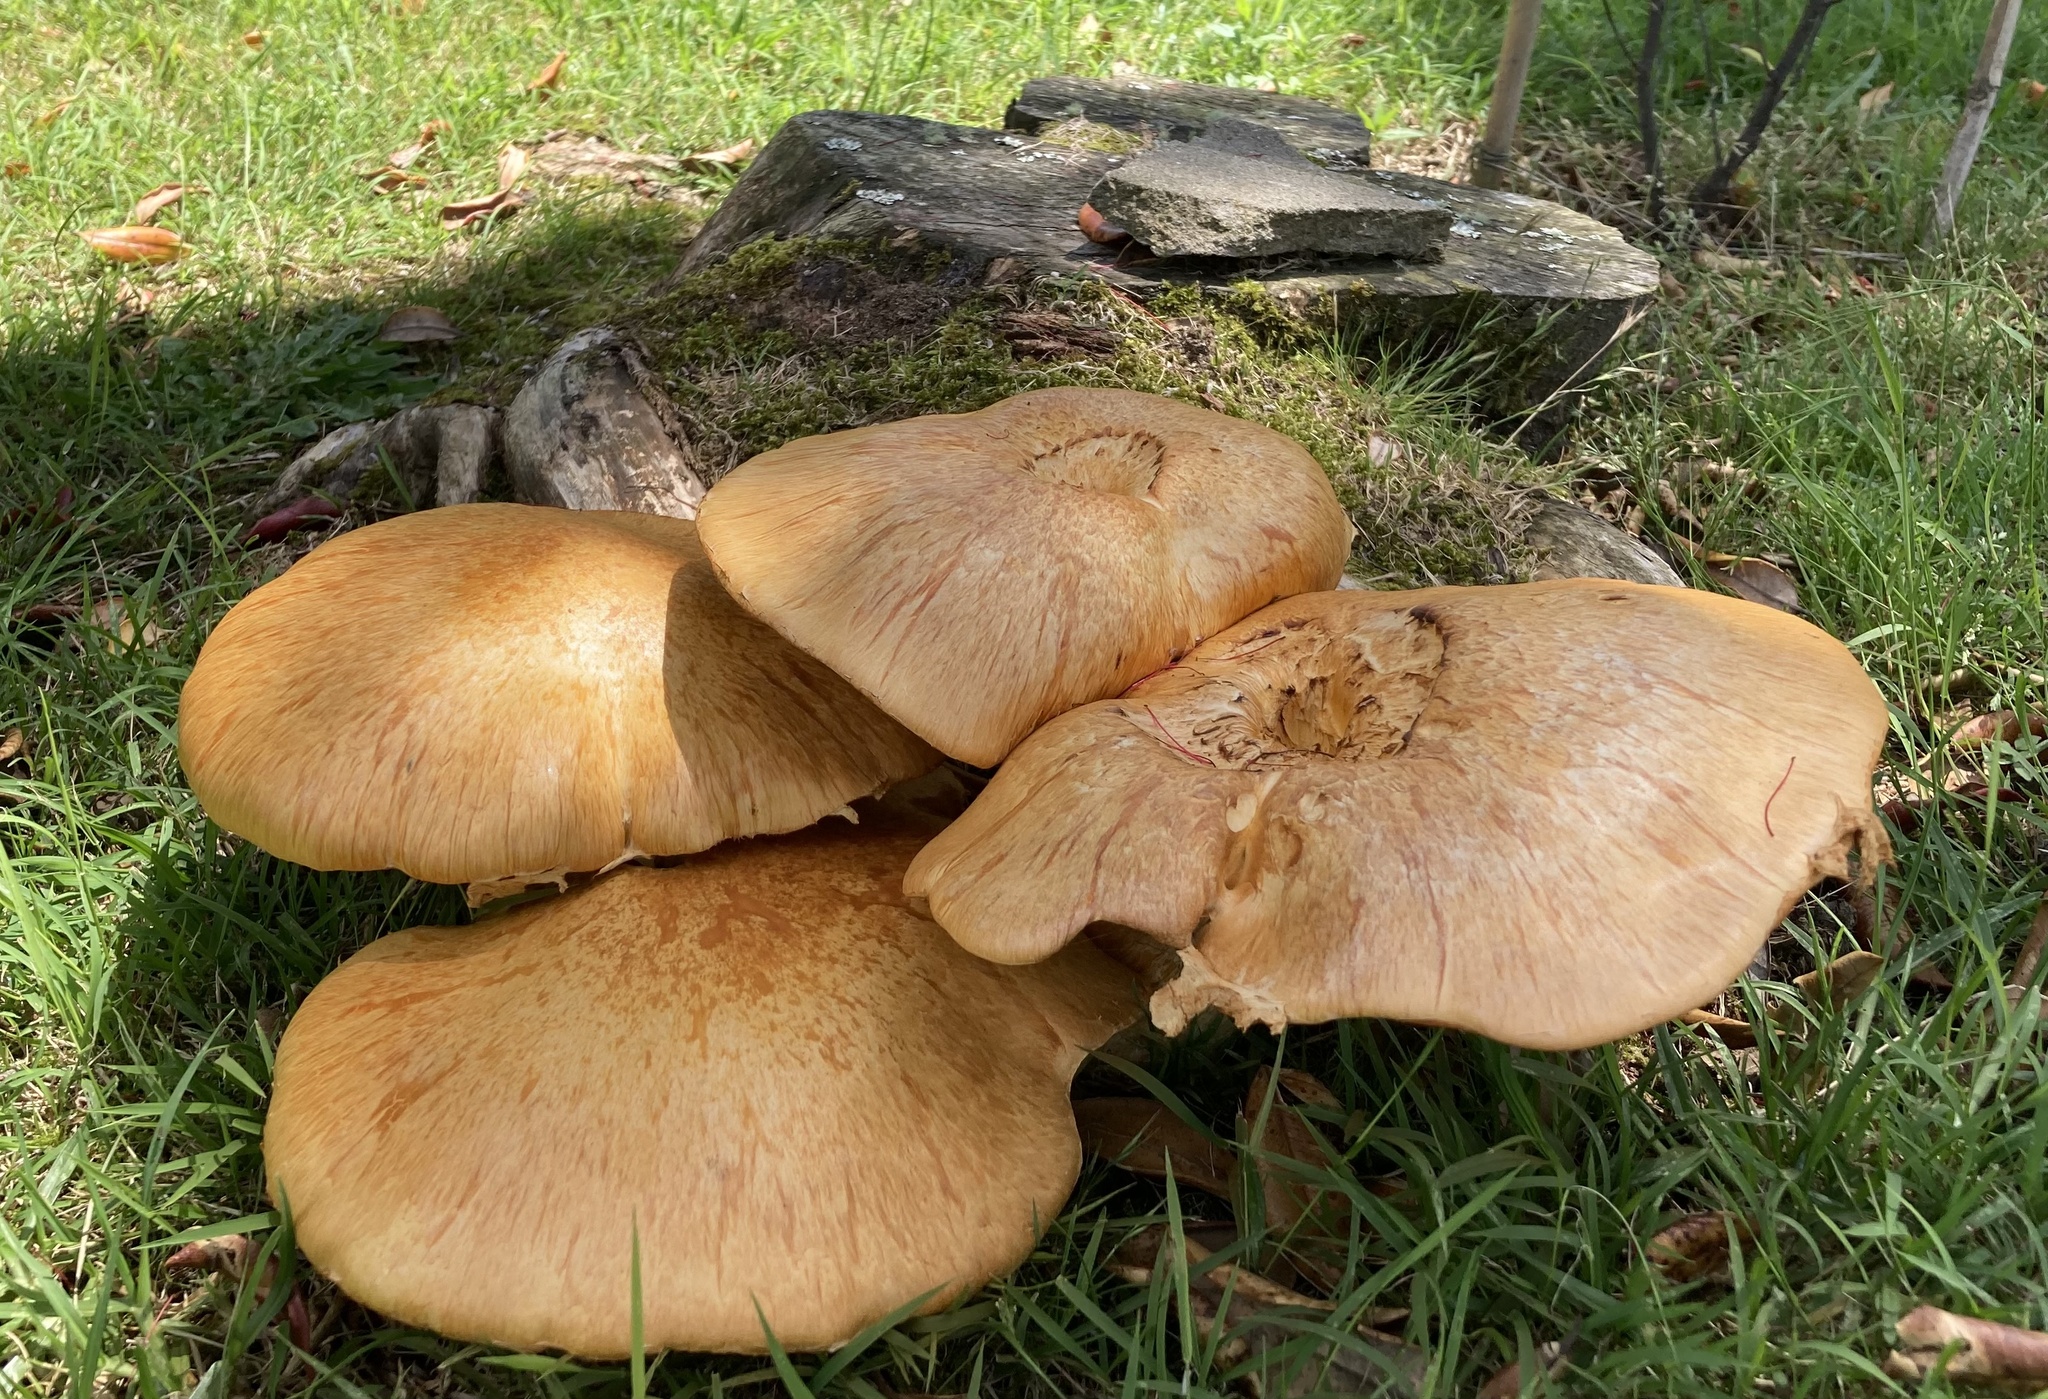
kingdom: Fungi
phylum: Basidiomycota
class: Agaricomycetes
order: Agaricales
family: Hymenogastraceae
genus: Gymnopilus
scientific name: Gymnopilus junonius
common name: Spectacular rustgill
